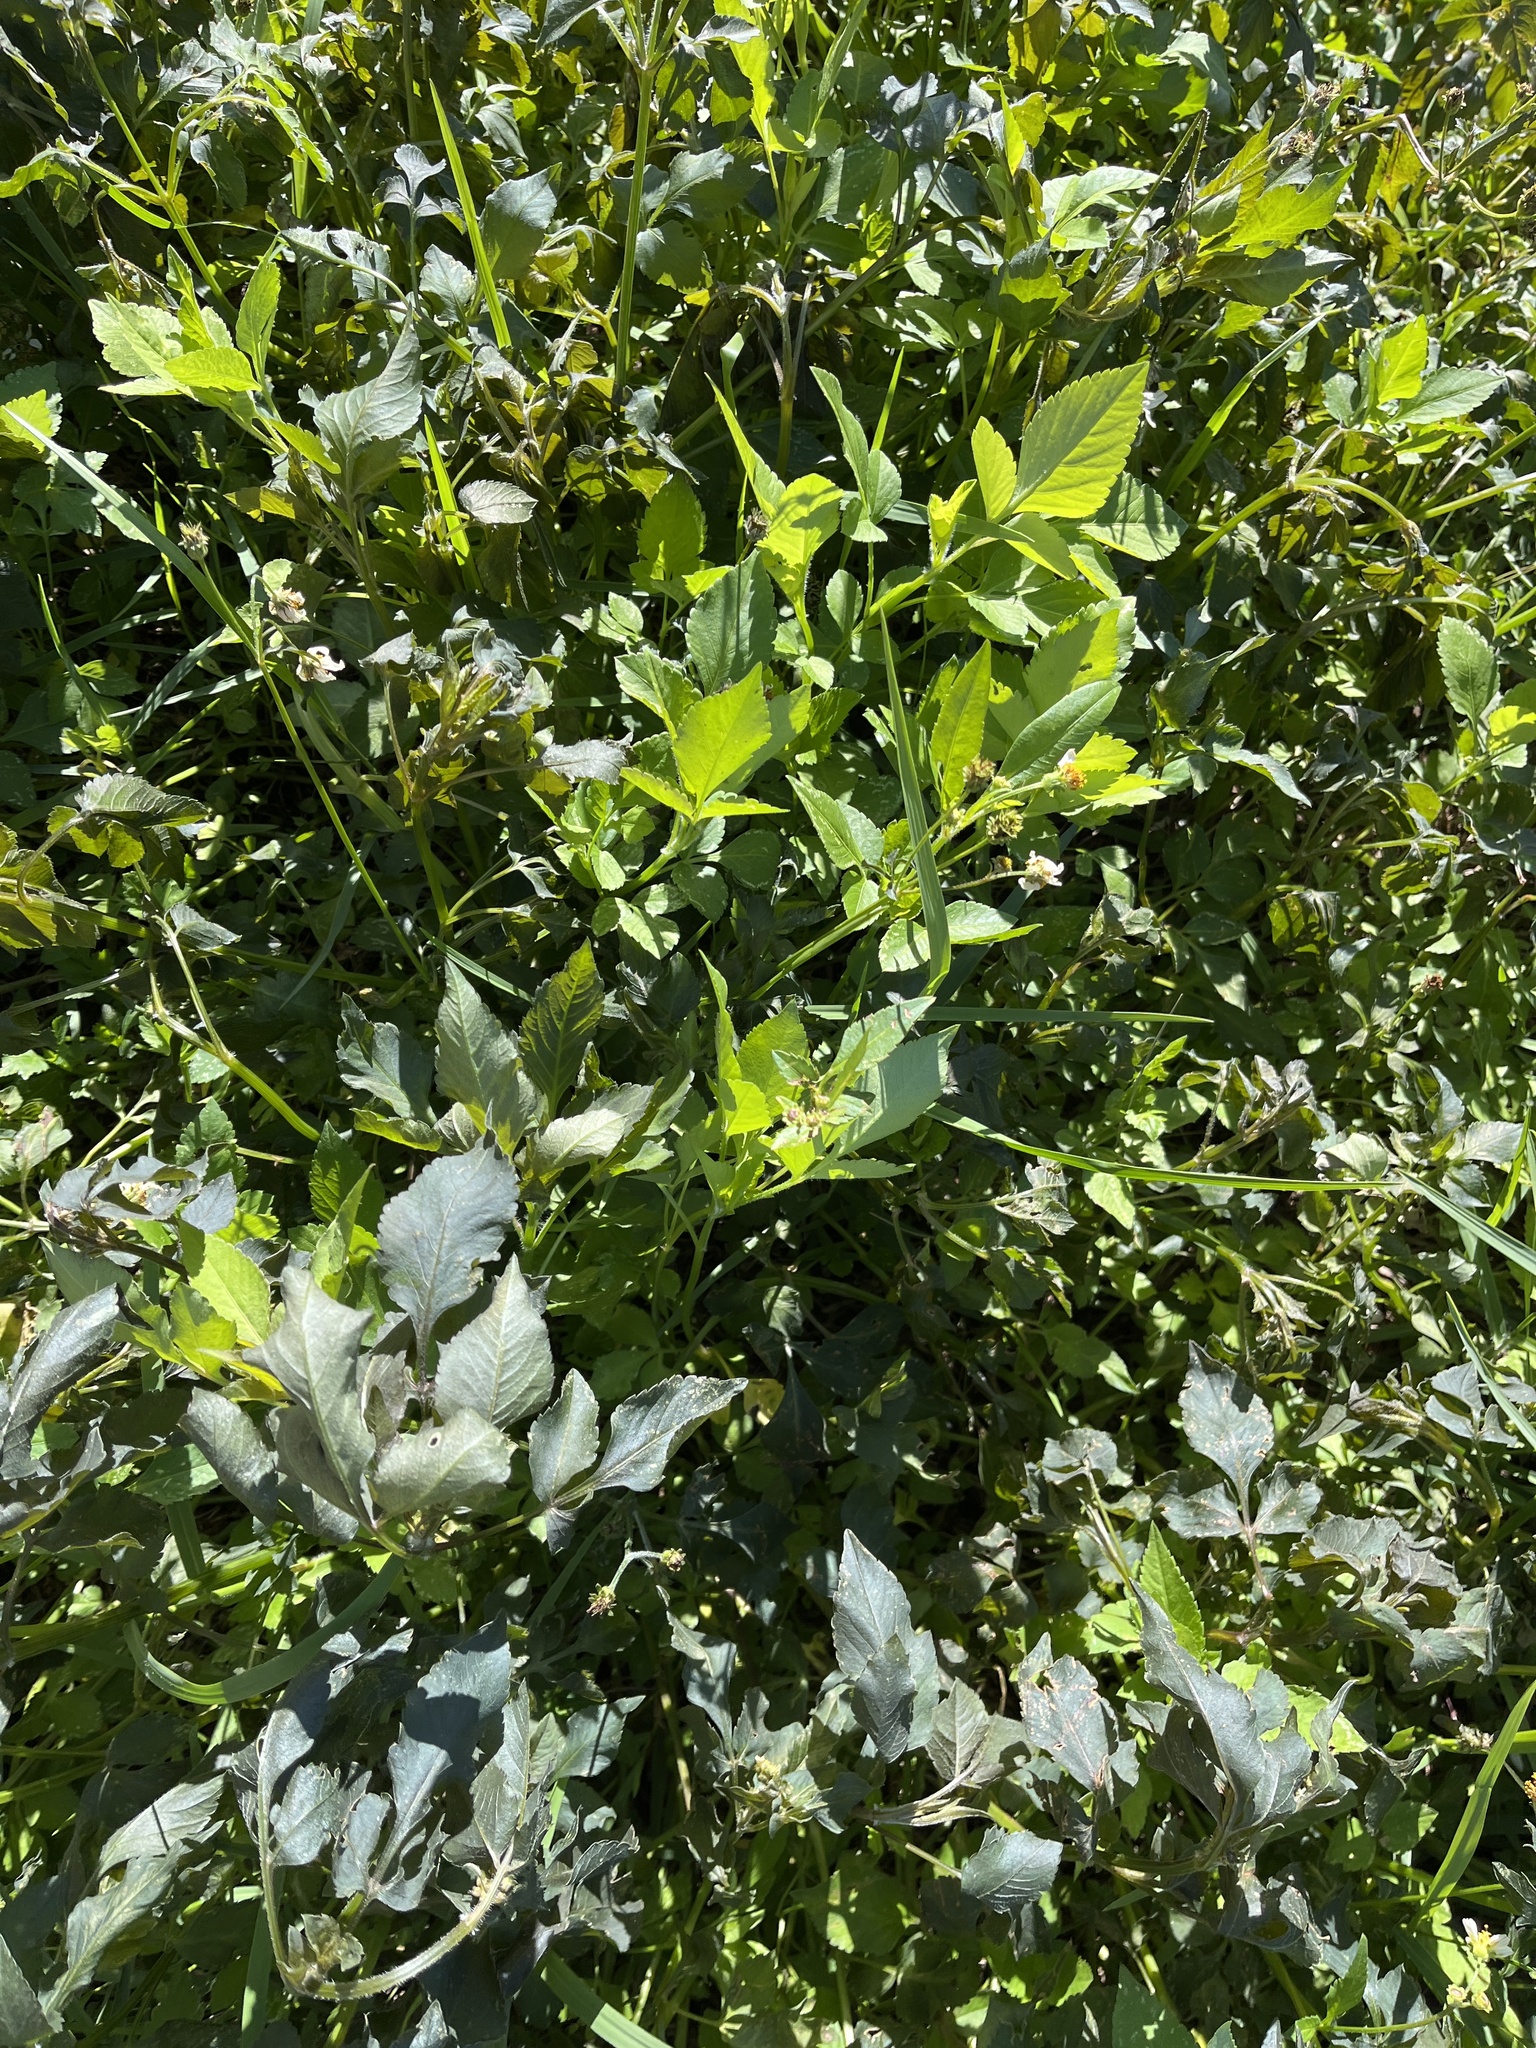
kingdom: Plantae
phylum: Tracheophyta
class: Magnoliopsida
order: Asterales
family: Asteraceae
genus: Bidens
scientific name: Bidens alba
